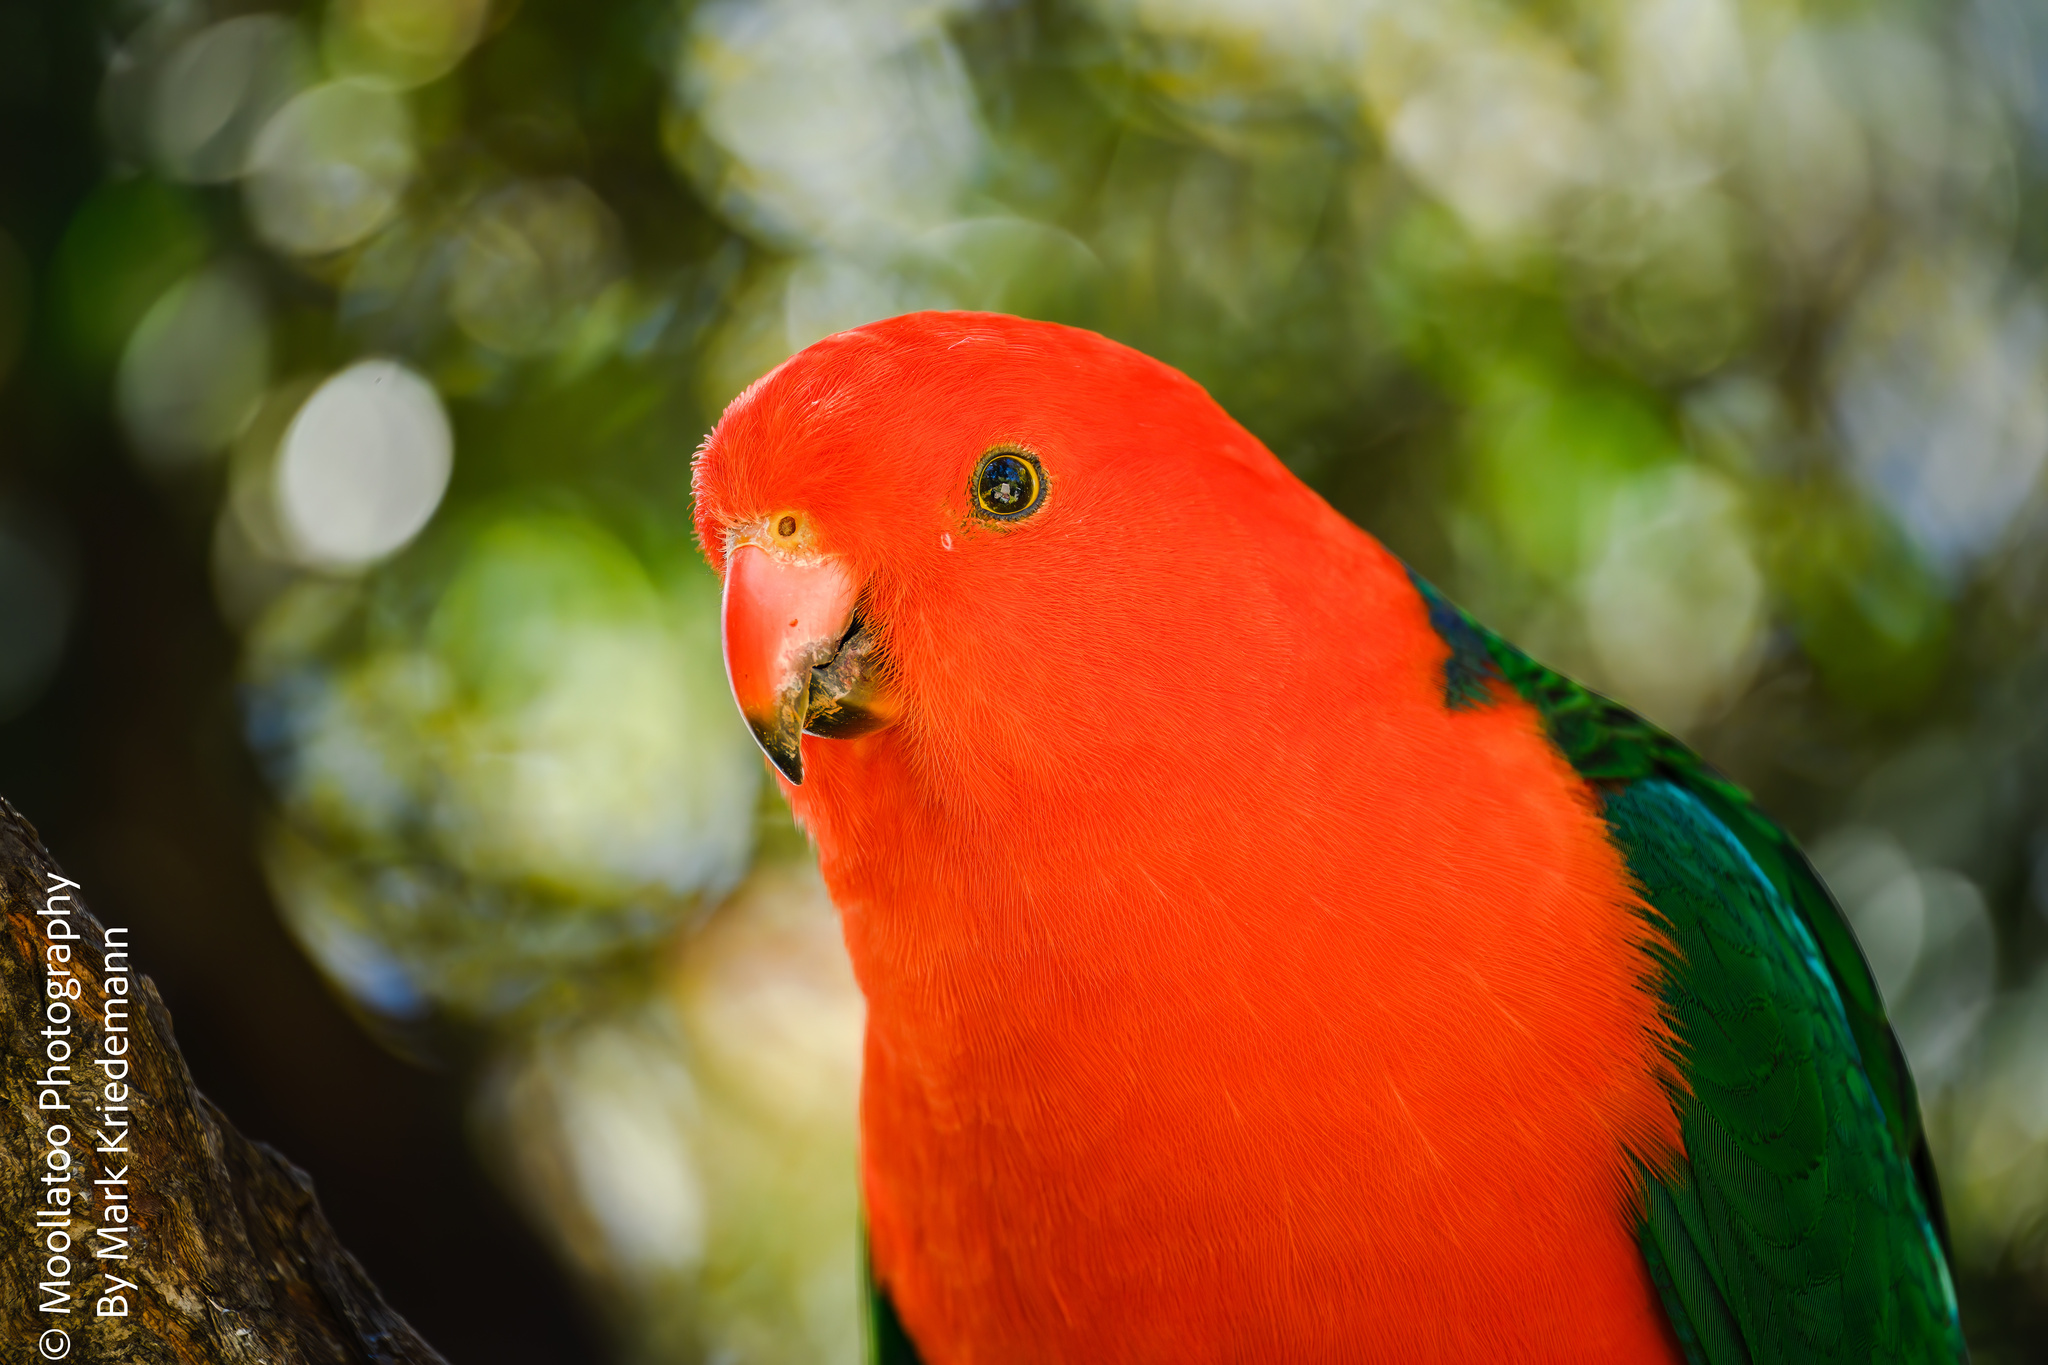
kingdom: Animalia
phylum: Chordata
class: Aves
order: Psittaciformes
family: Psittacidae
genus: Alisterus
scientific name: Alisterus scapularis
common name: Australian king parrot
